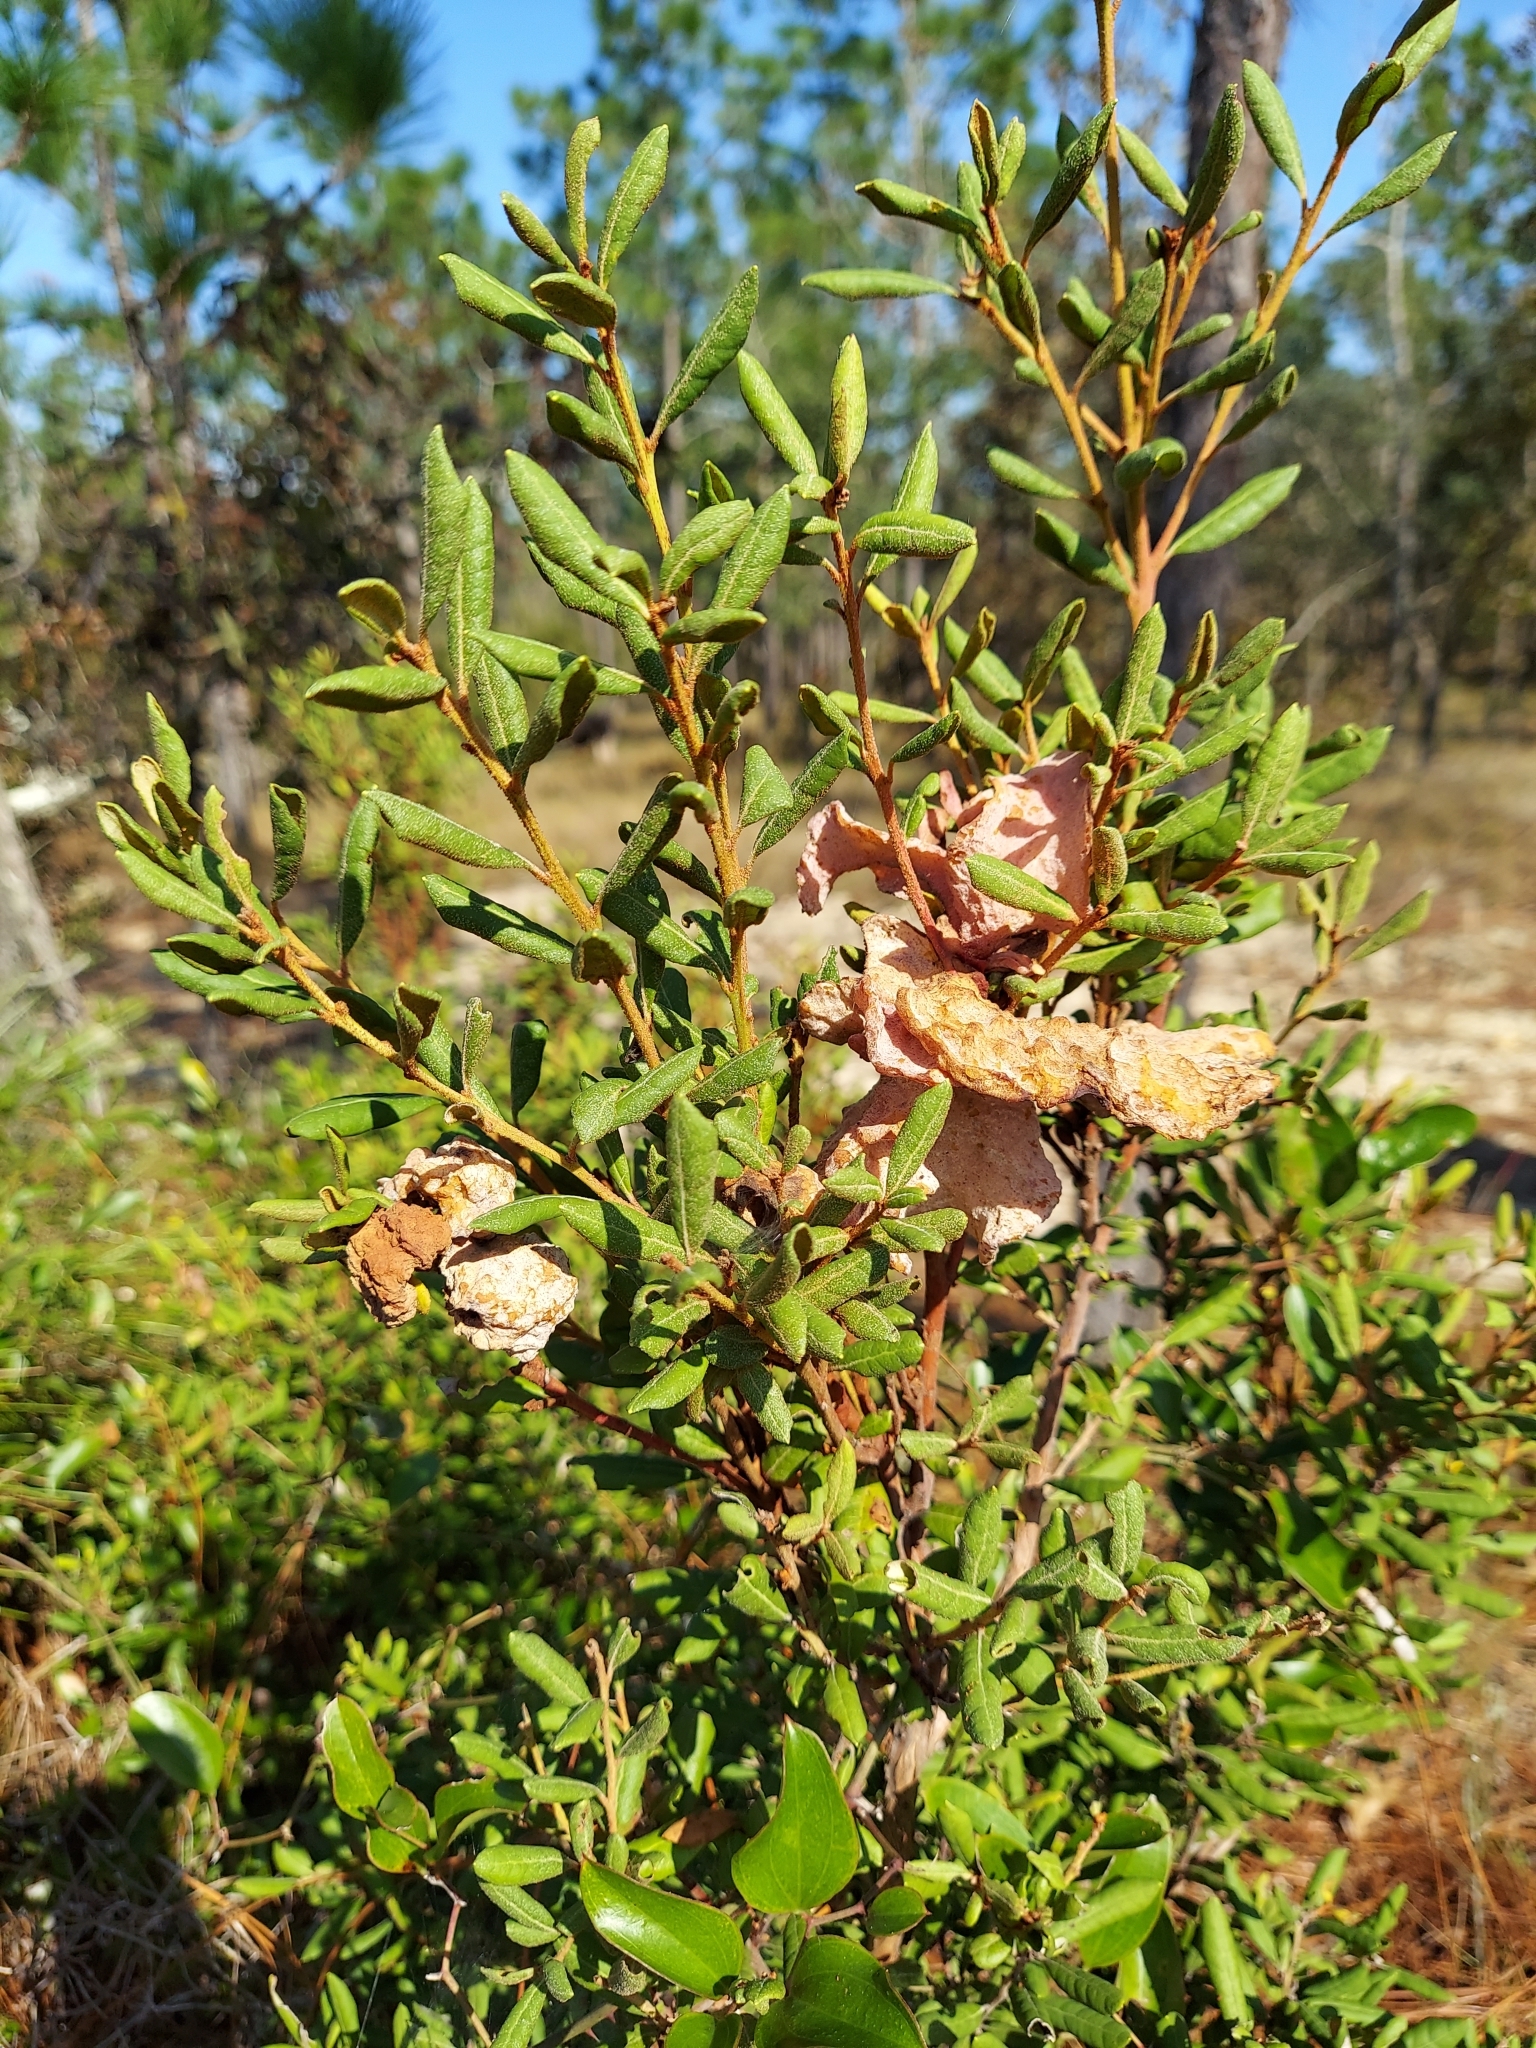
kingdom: Plantae
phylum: Tracheophyta
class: Magnoliopsida
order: Ericales
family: Ericaceae
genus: Lyonia
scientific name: Lyonia ferruginea
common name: Rusty lyonia
